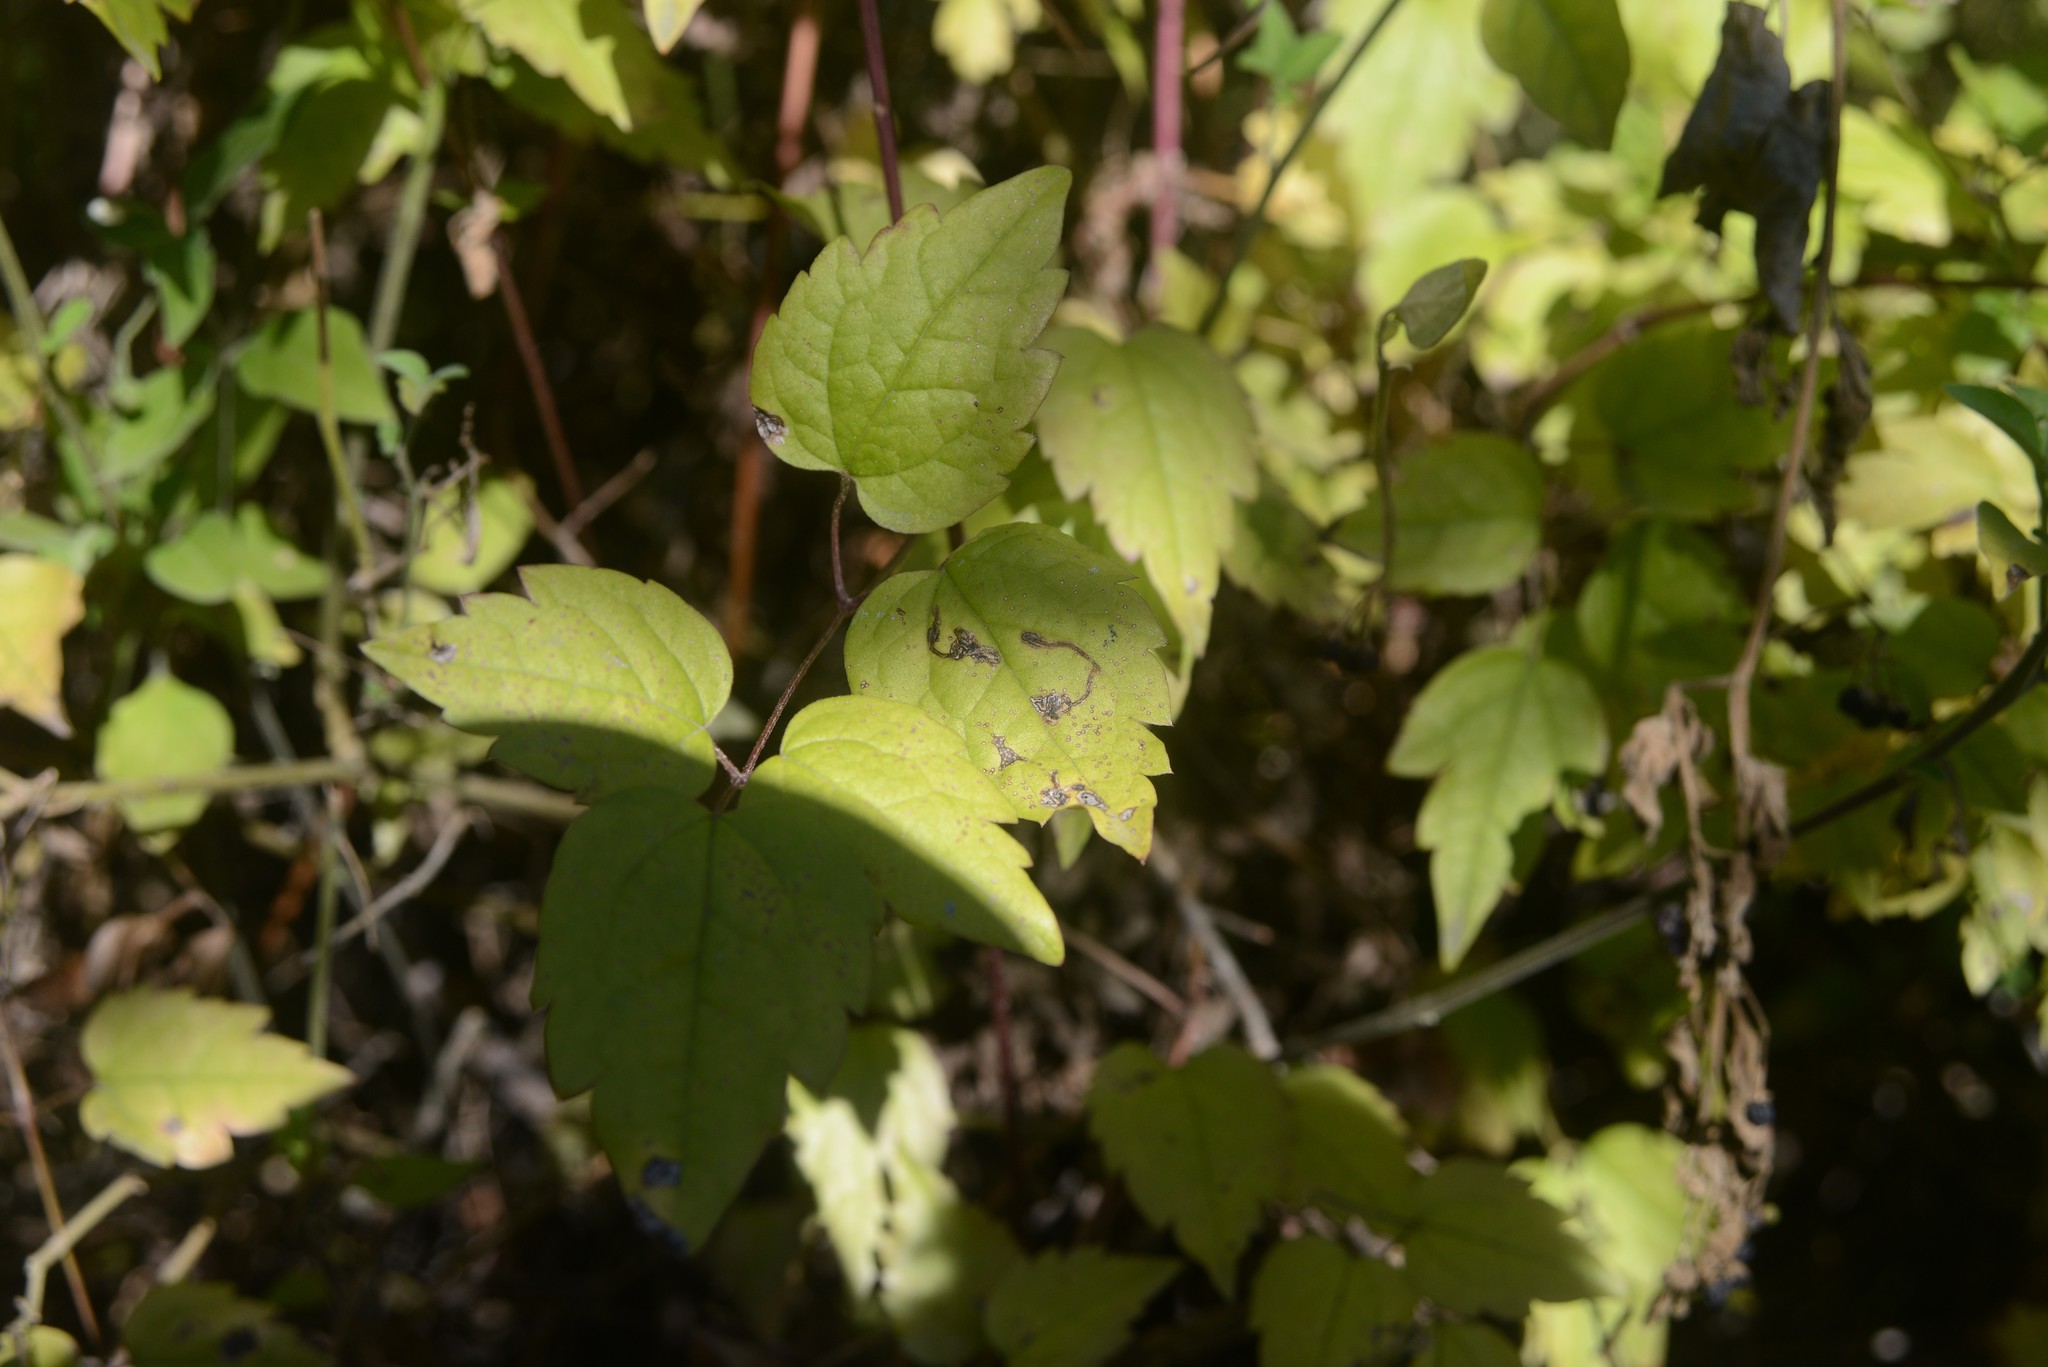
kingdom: Plantae
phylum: Tracheophyta
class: Magnoliopsida
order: Ranunculales
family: Ranunculaceae
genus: Clematis
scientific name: Clematis vitalba
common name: Evergreen clematis
